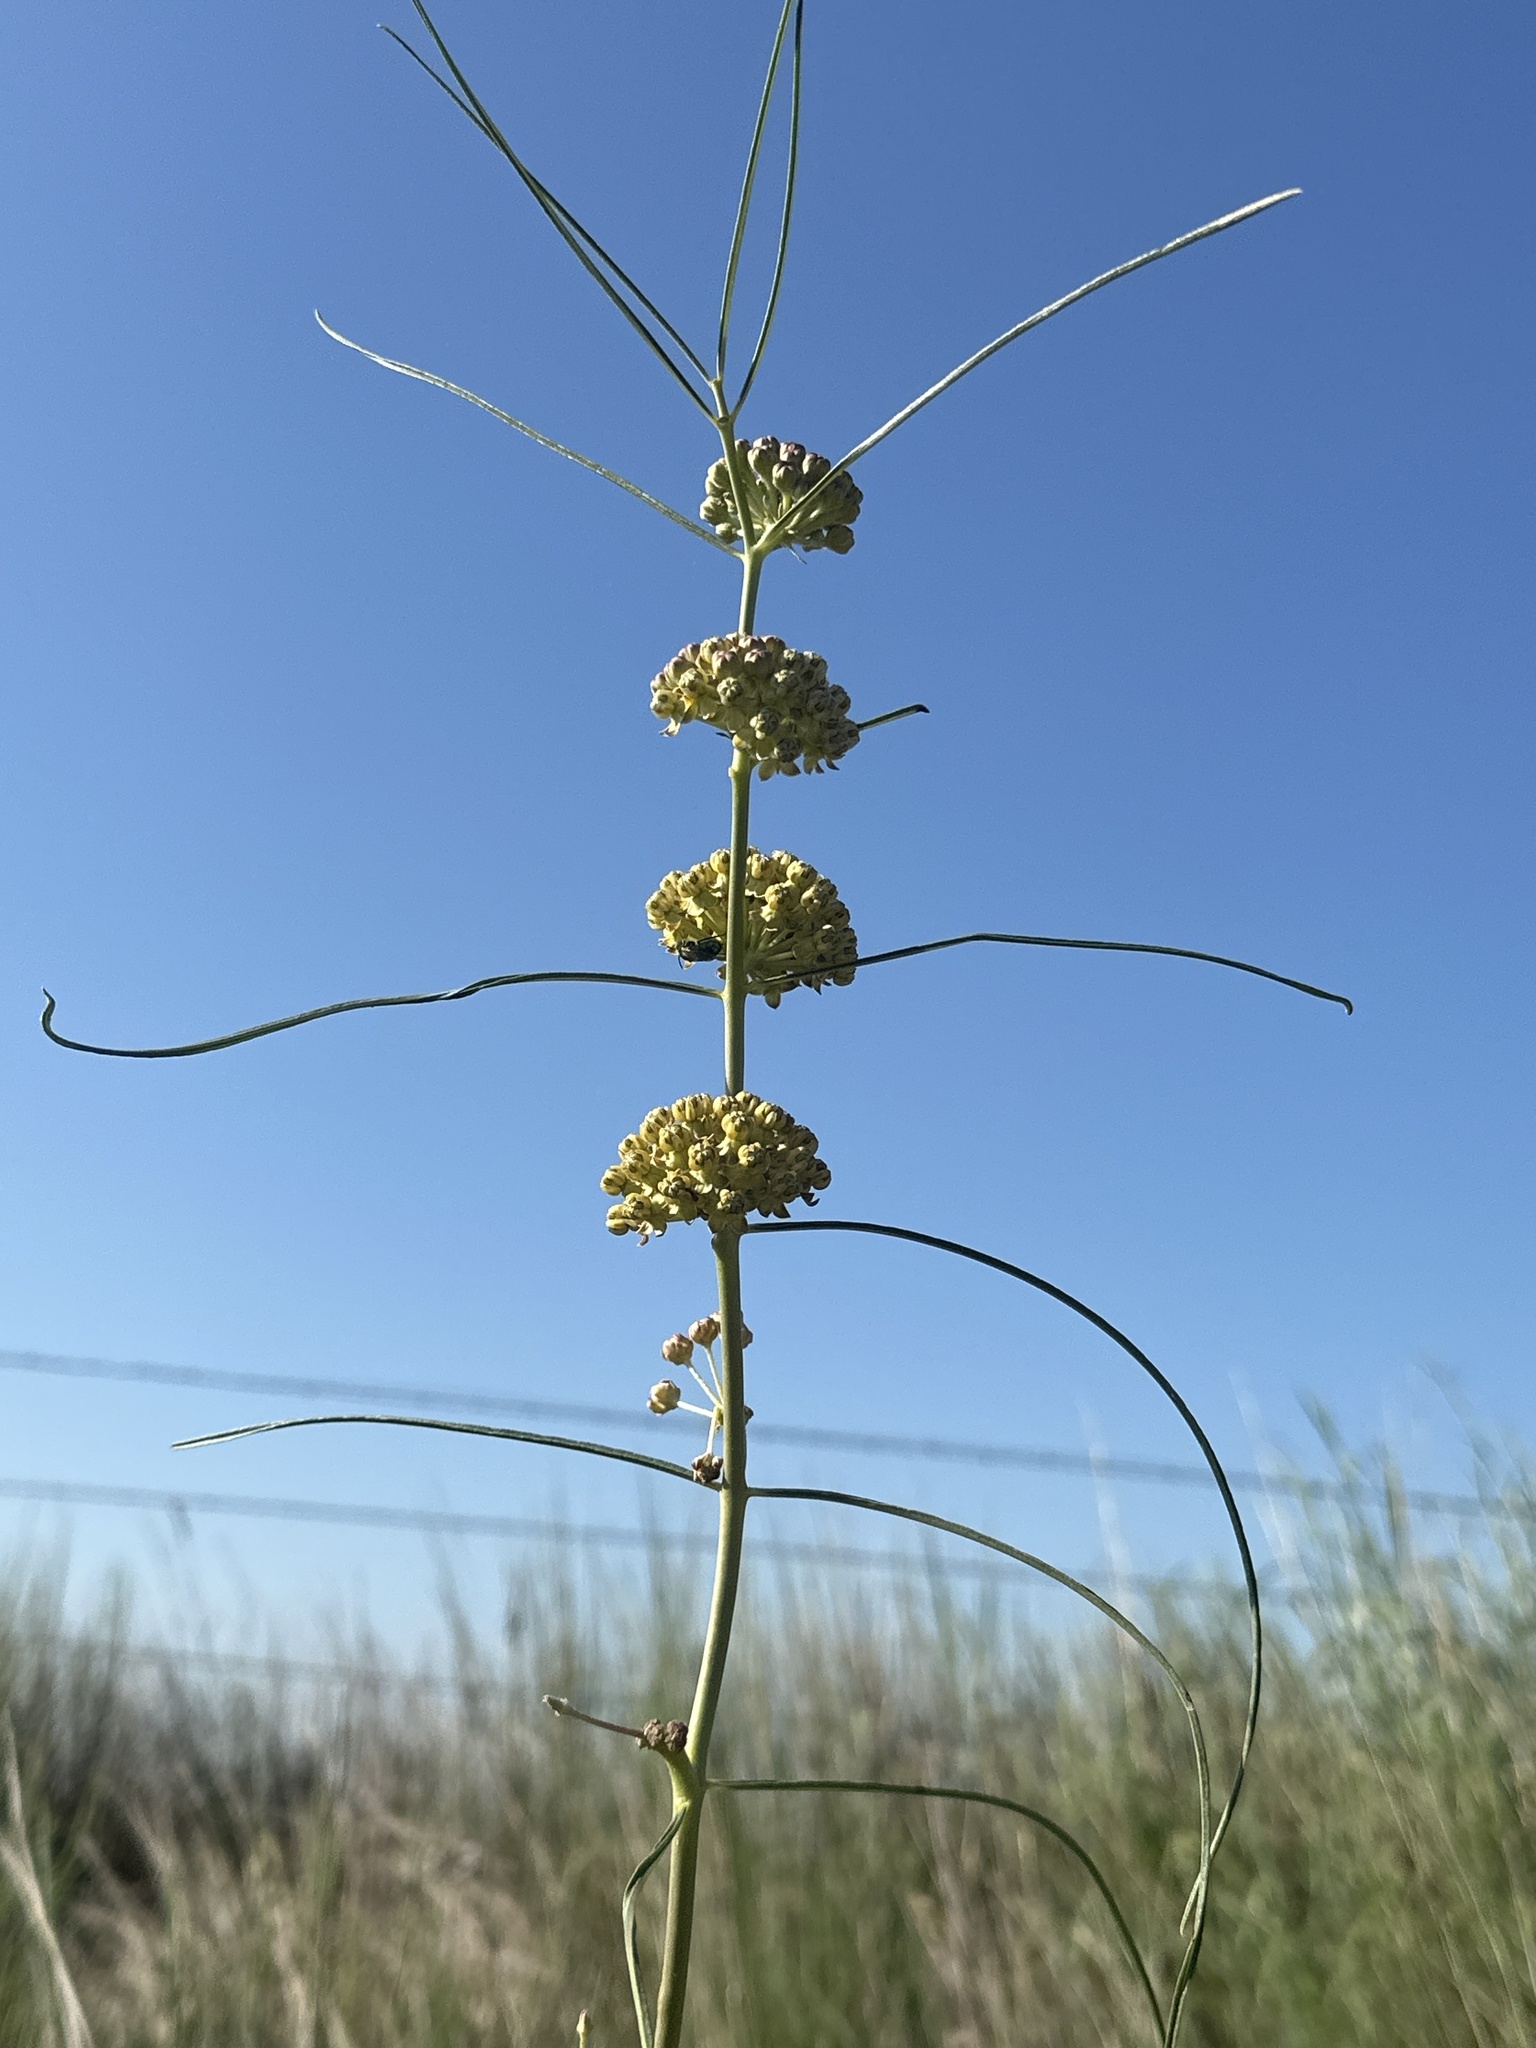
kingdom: Plantae
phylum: Tracheophyta
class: Magnoliopsida
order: Gentianales
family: Apocynaceae
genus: Asclepias
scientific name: Asclepias engelmanniana
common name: Engelmann's milkweed
